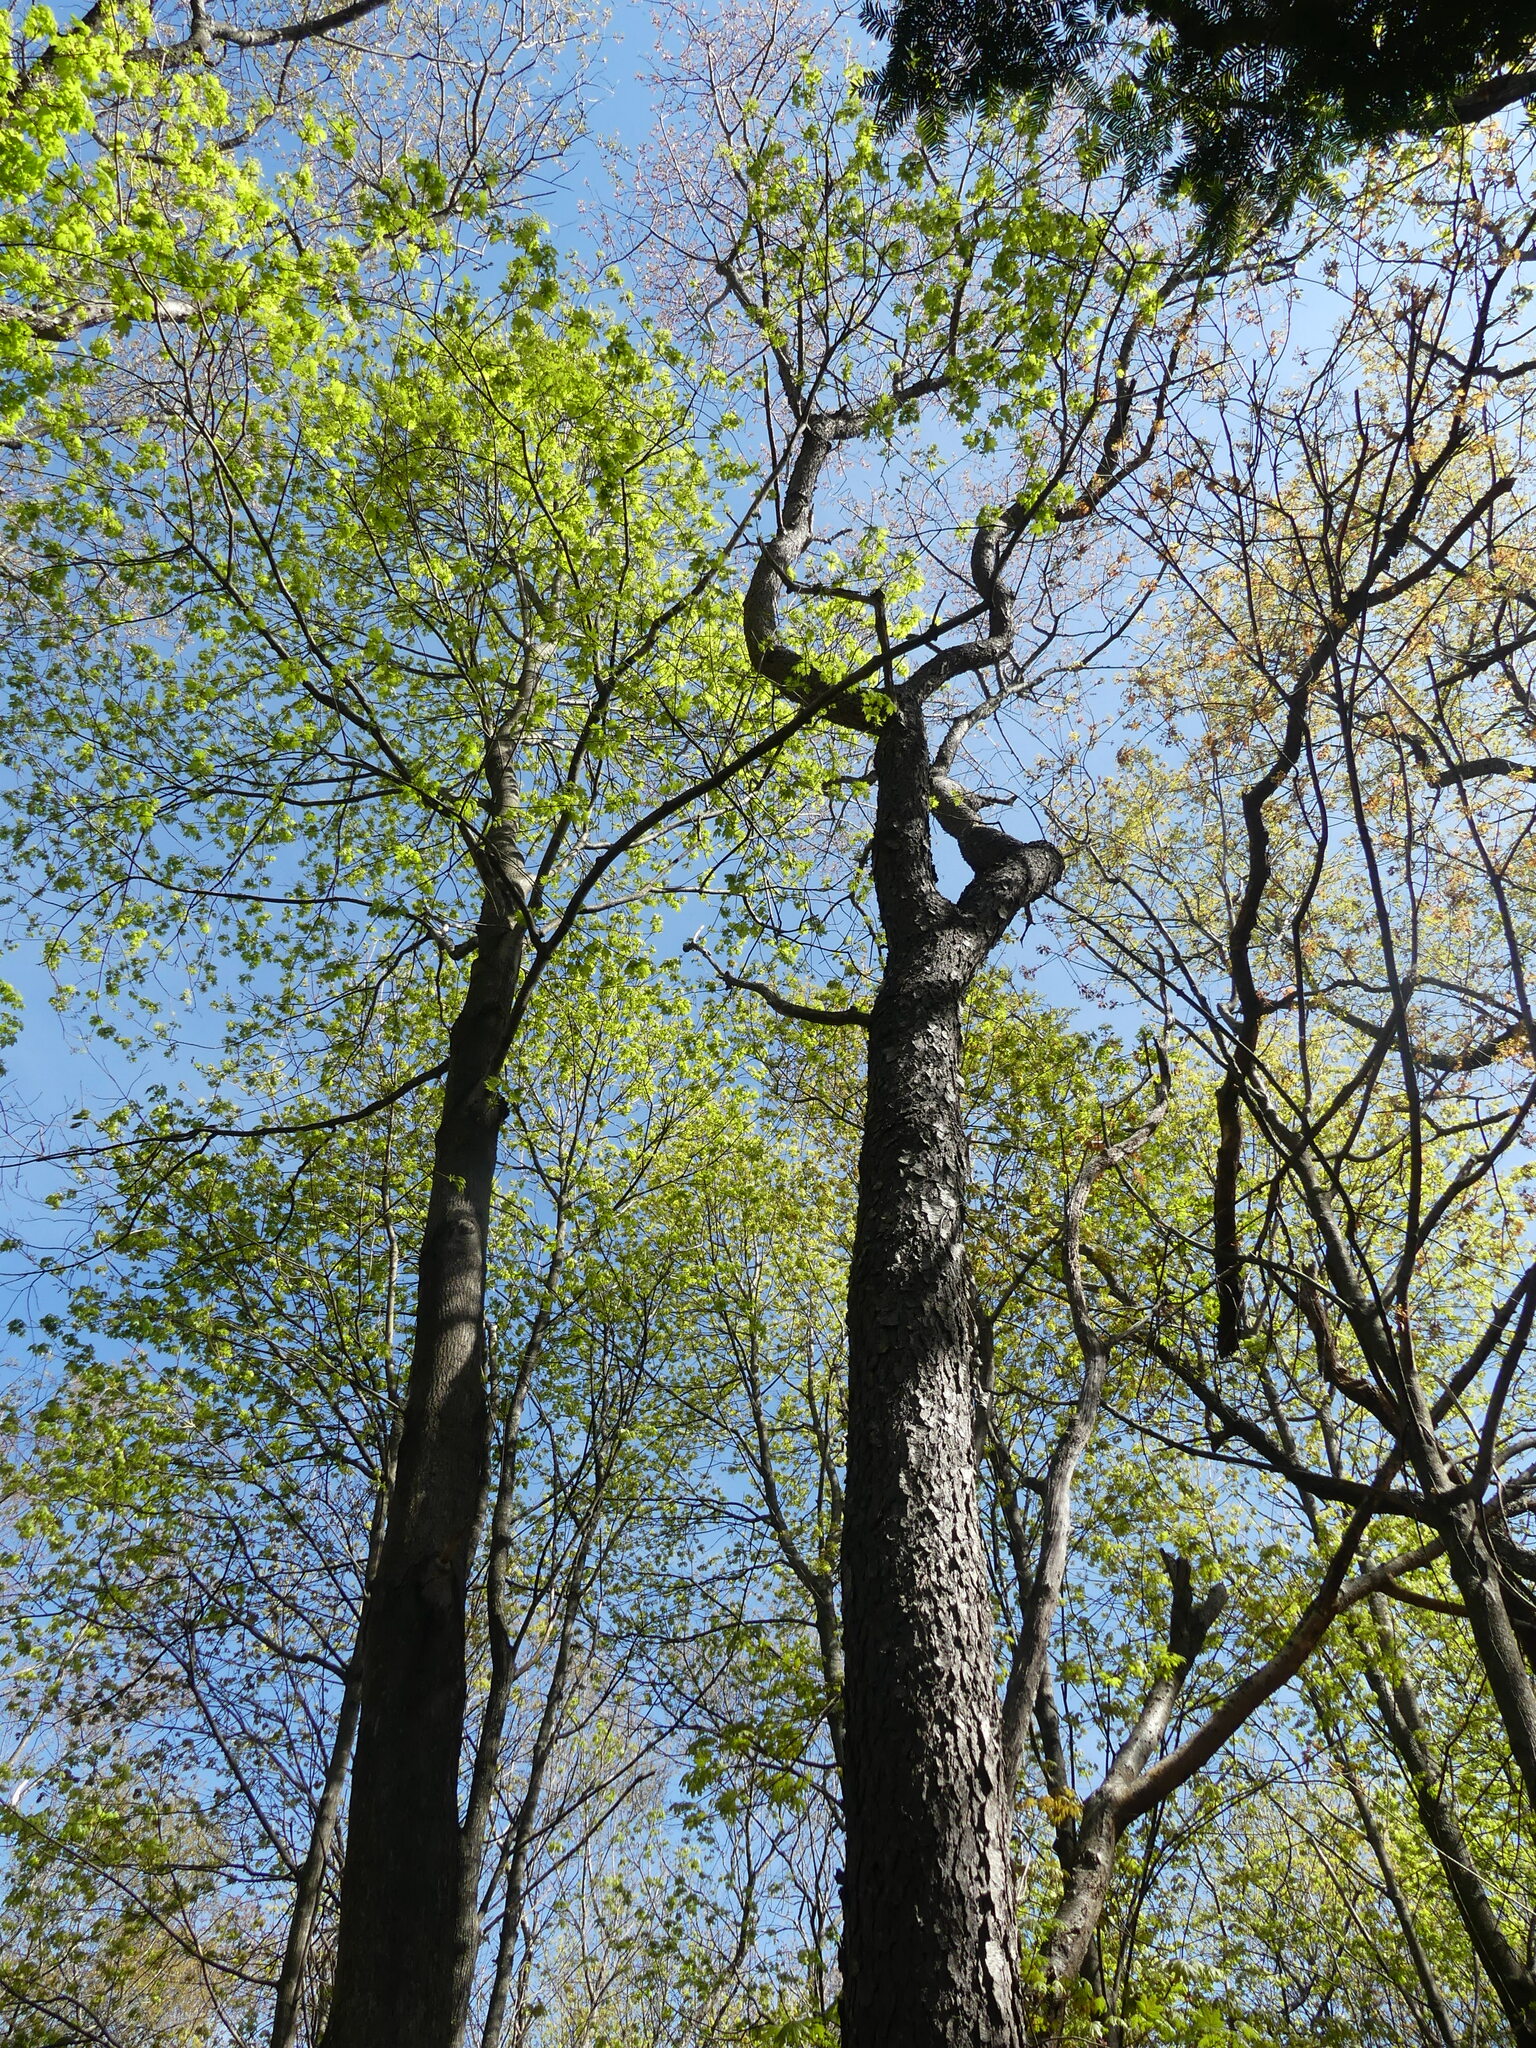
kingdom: Plantae
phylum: Tracheophyta
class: Magnoliopsida
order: Rosales
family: Rosaceae
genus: Prunus
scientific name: Prunus serotina
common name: Black cherry
